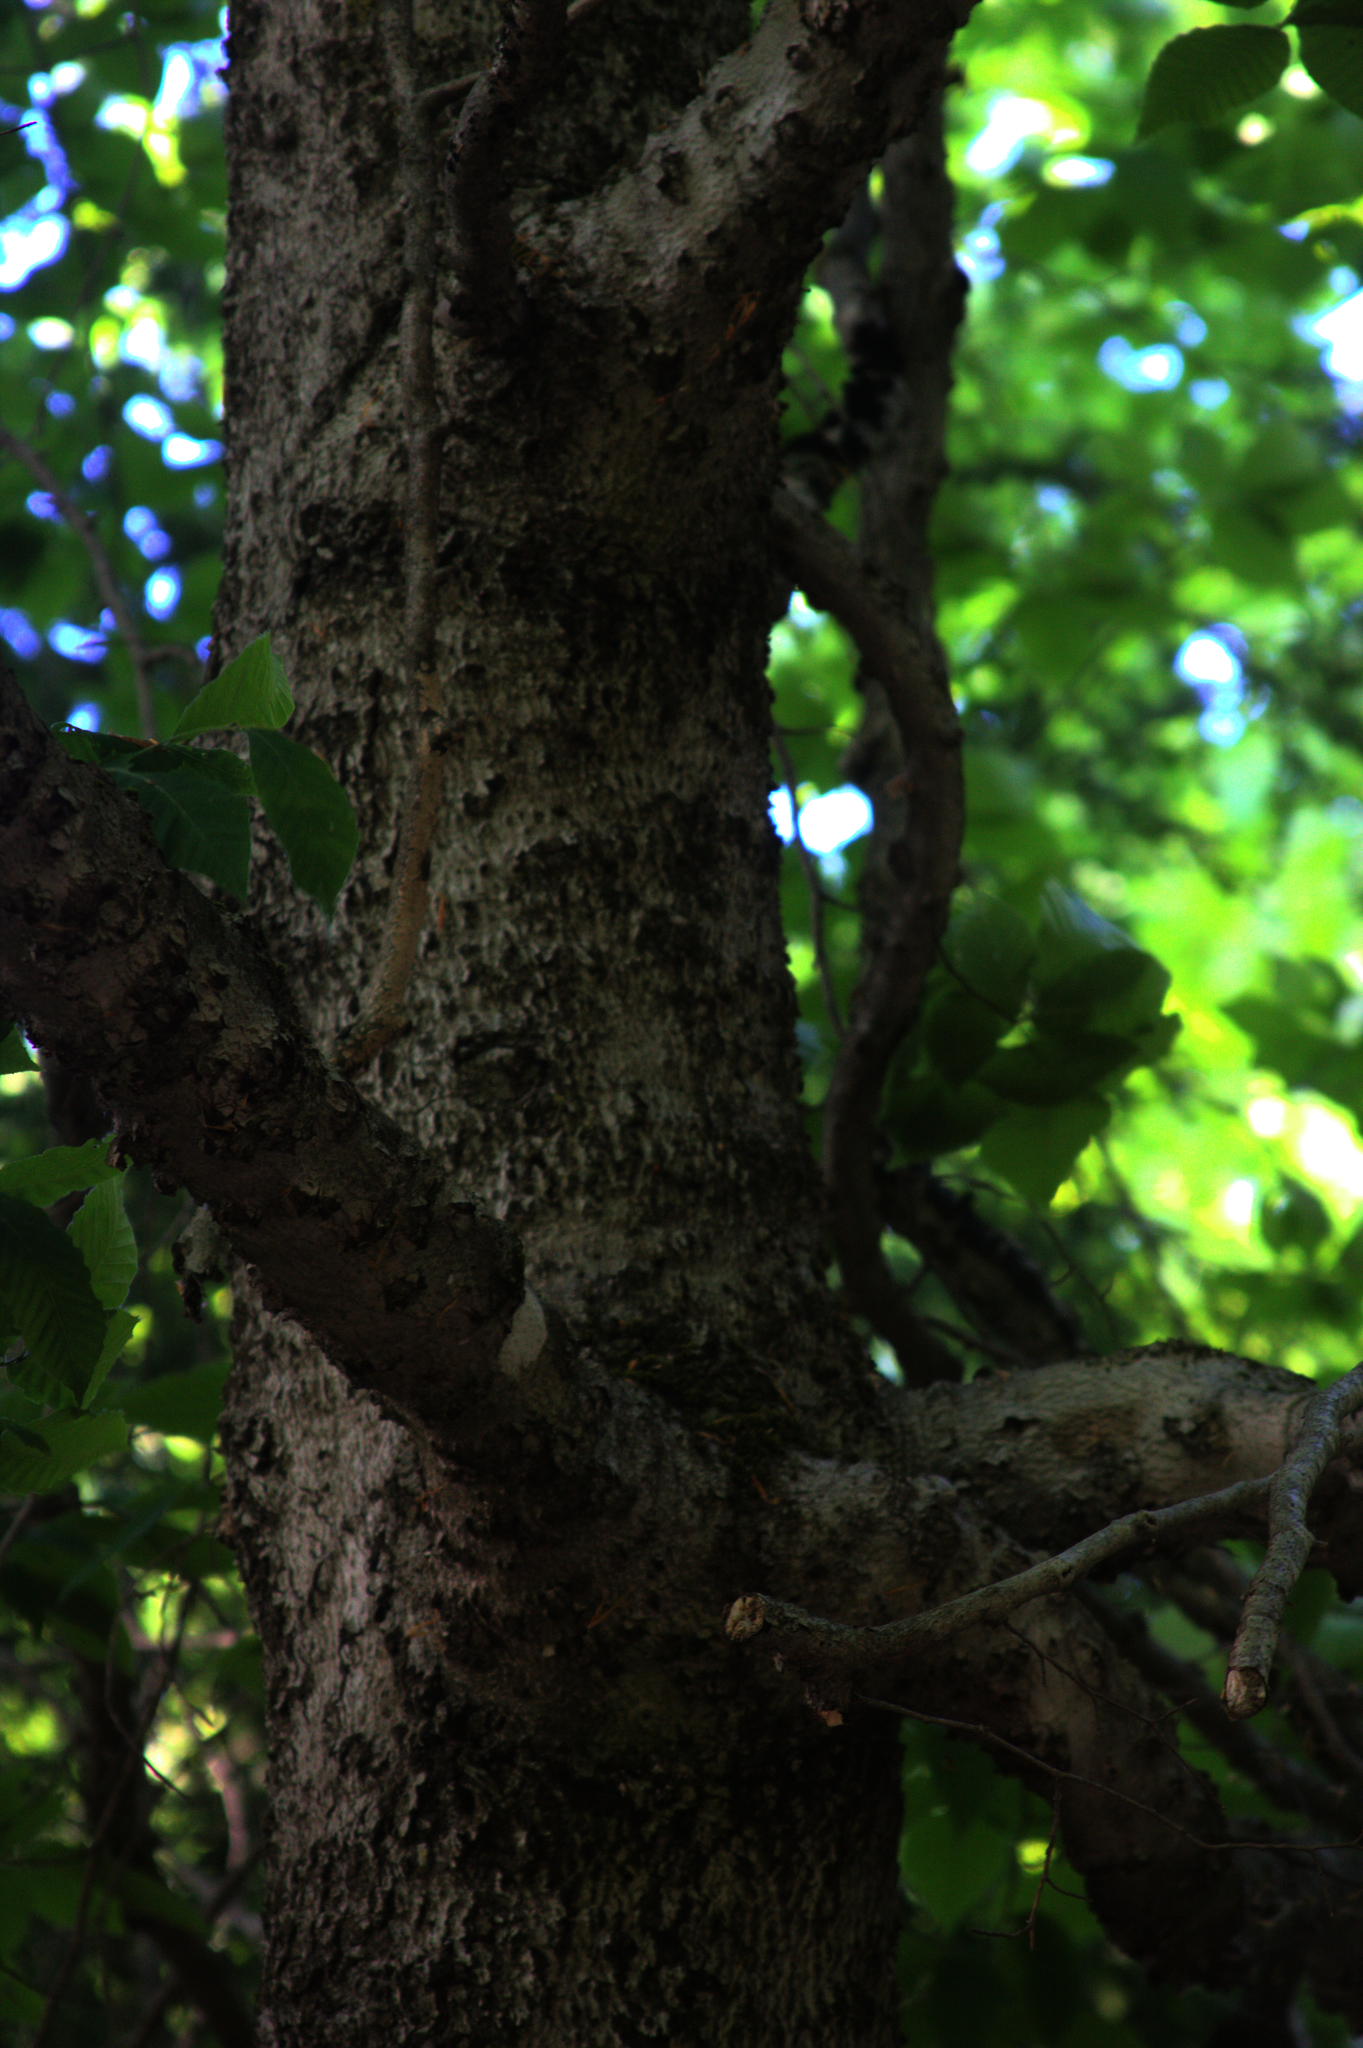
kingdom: Plantae
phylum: Tracheophyta
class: Magnoliopsida
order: Fagales
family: Fagaceae
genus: Fagus
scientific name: Fagus grandifolia
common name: American beech
